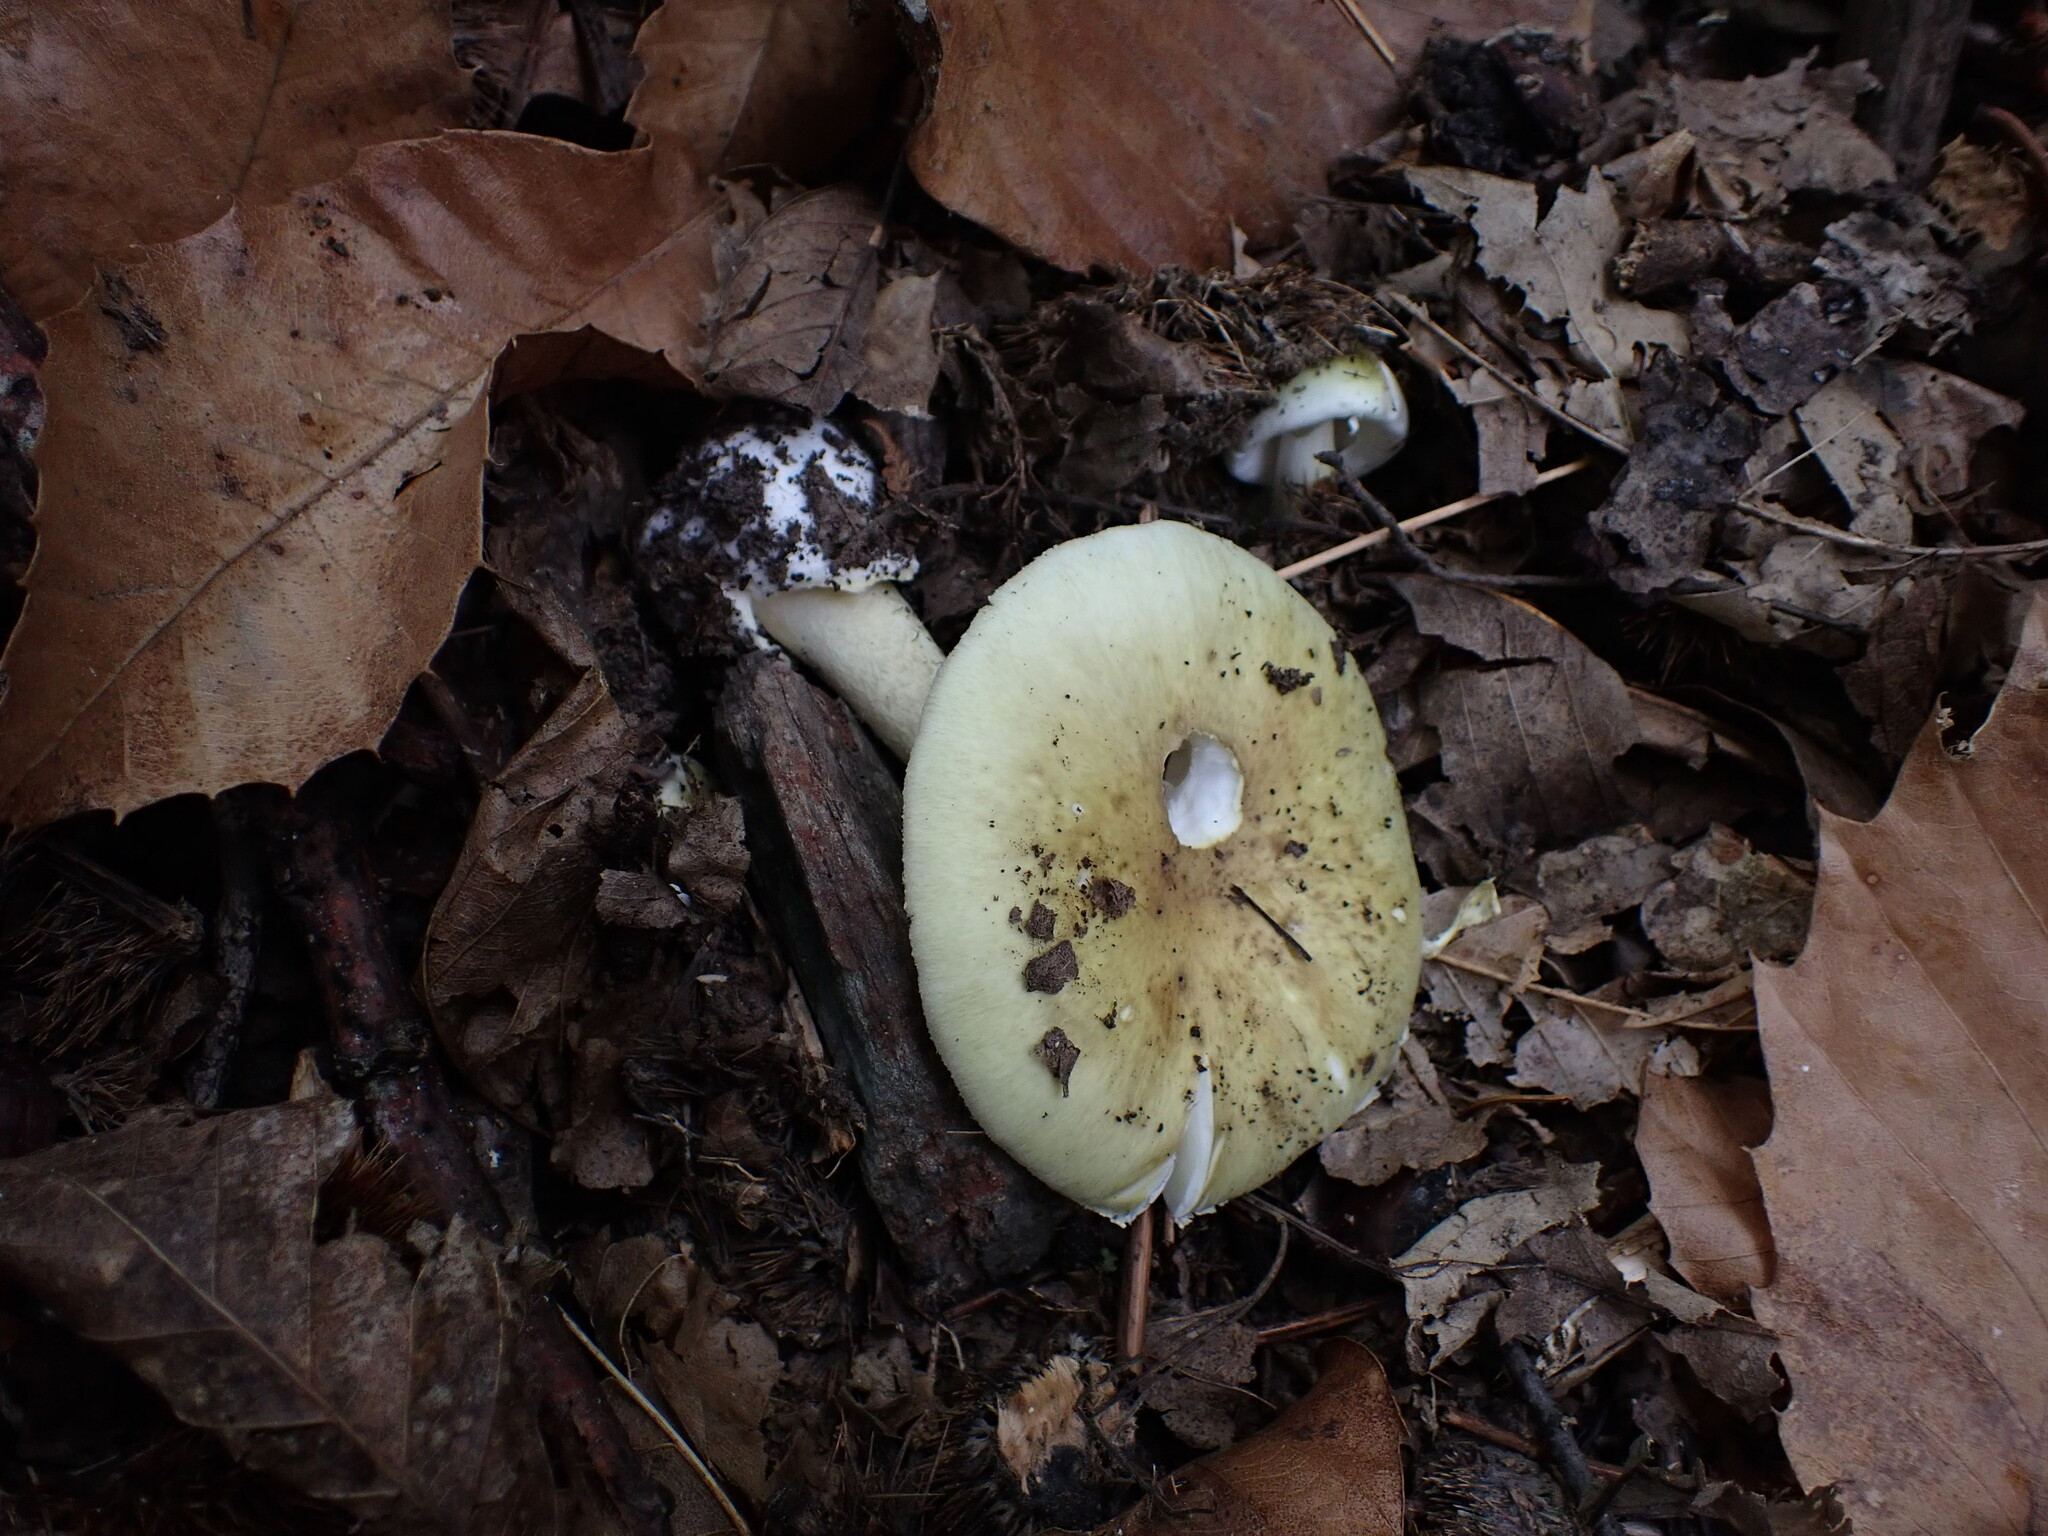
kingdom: Fungi
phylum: Basidiomycota
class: Agaricomycetes
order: Agaricales
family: Amanitaceae
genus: Amanita
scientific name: Amanita phalloides
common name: Death cap
